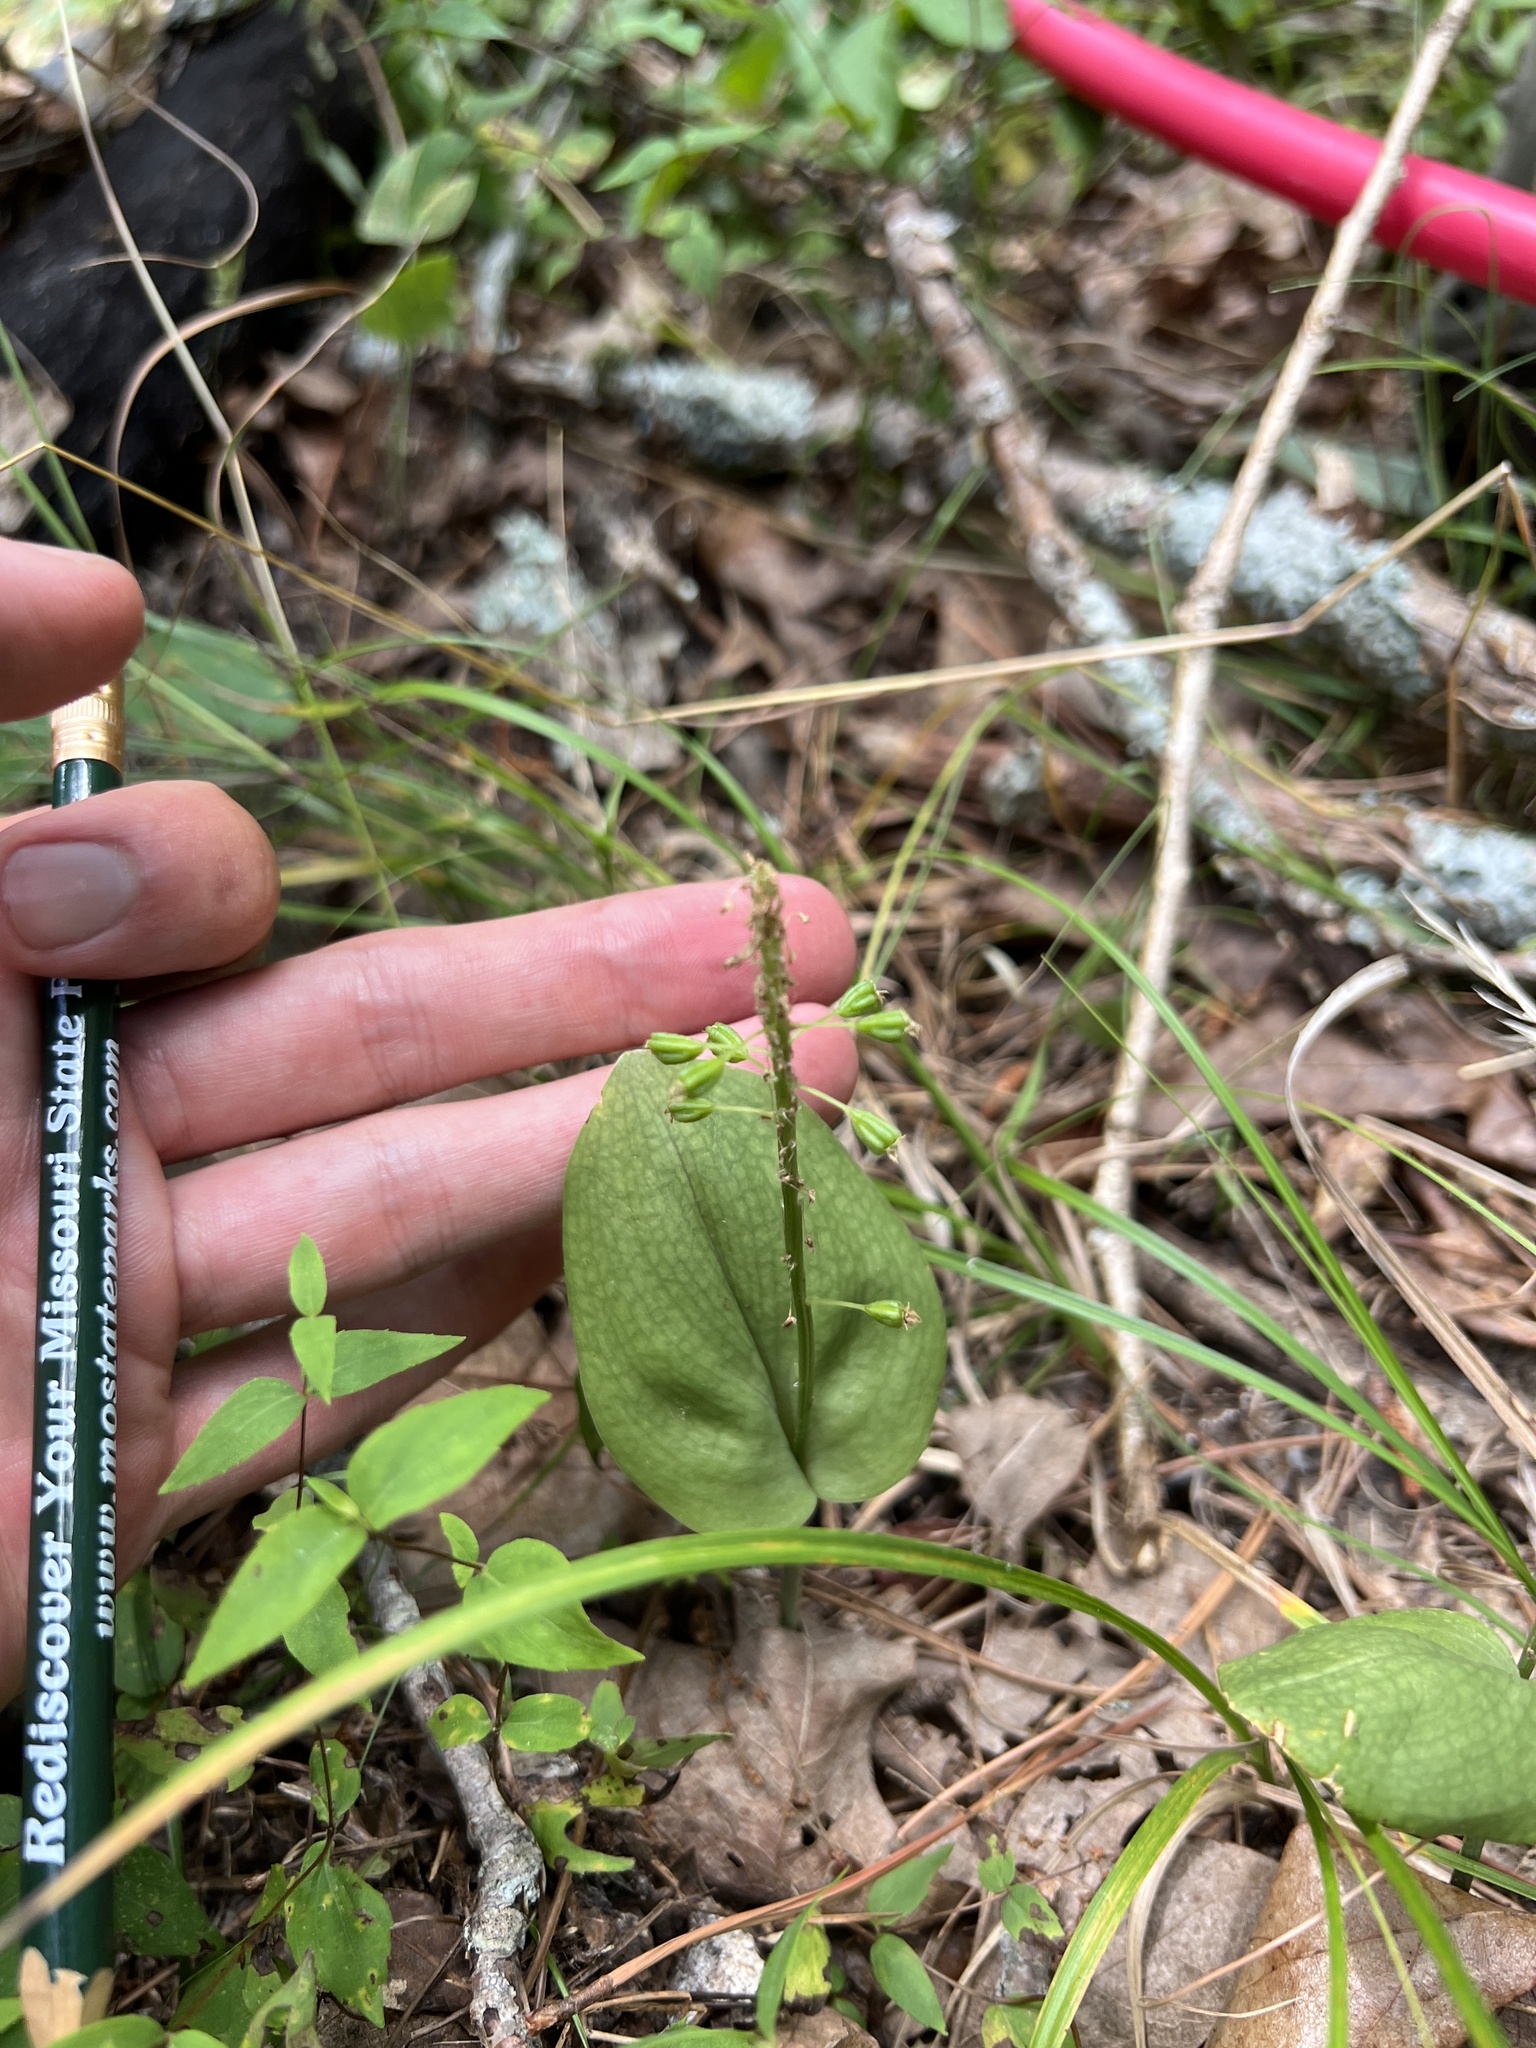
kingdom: Plantae
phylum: Tracheophyta
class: Liliopsida
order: Asparagales
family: Orchidaceae
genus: Malaxis
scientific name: Malaxis unifolia
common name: Green adder's-mouth
